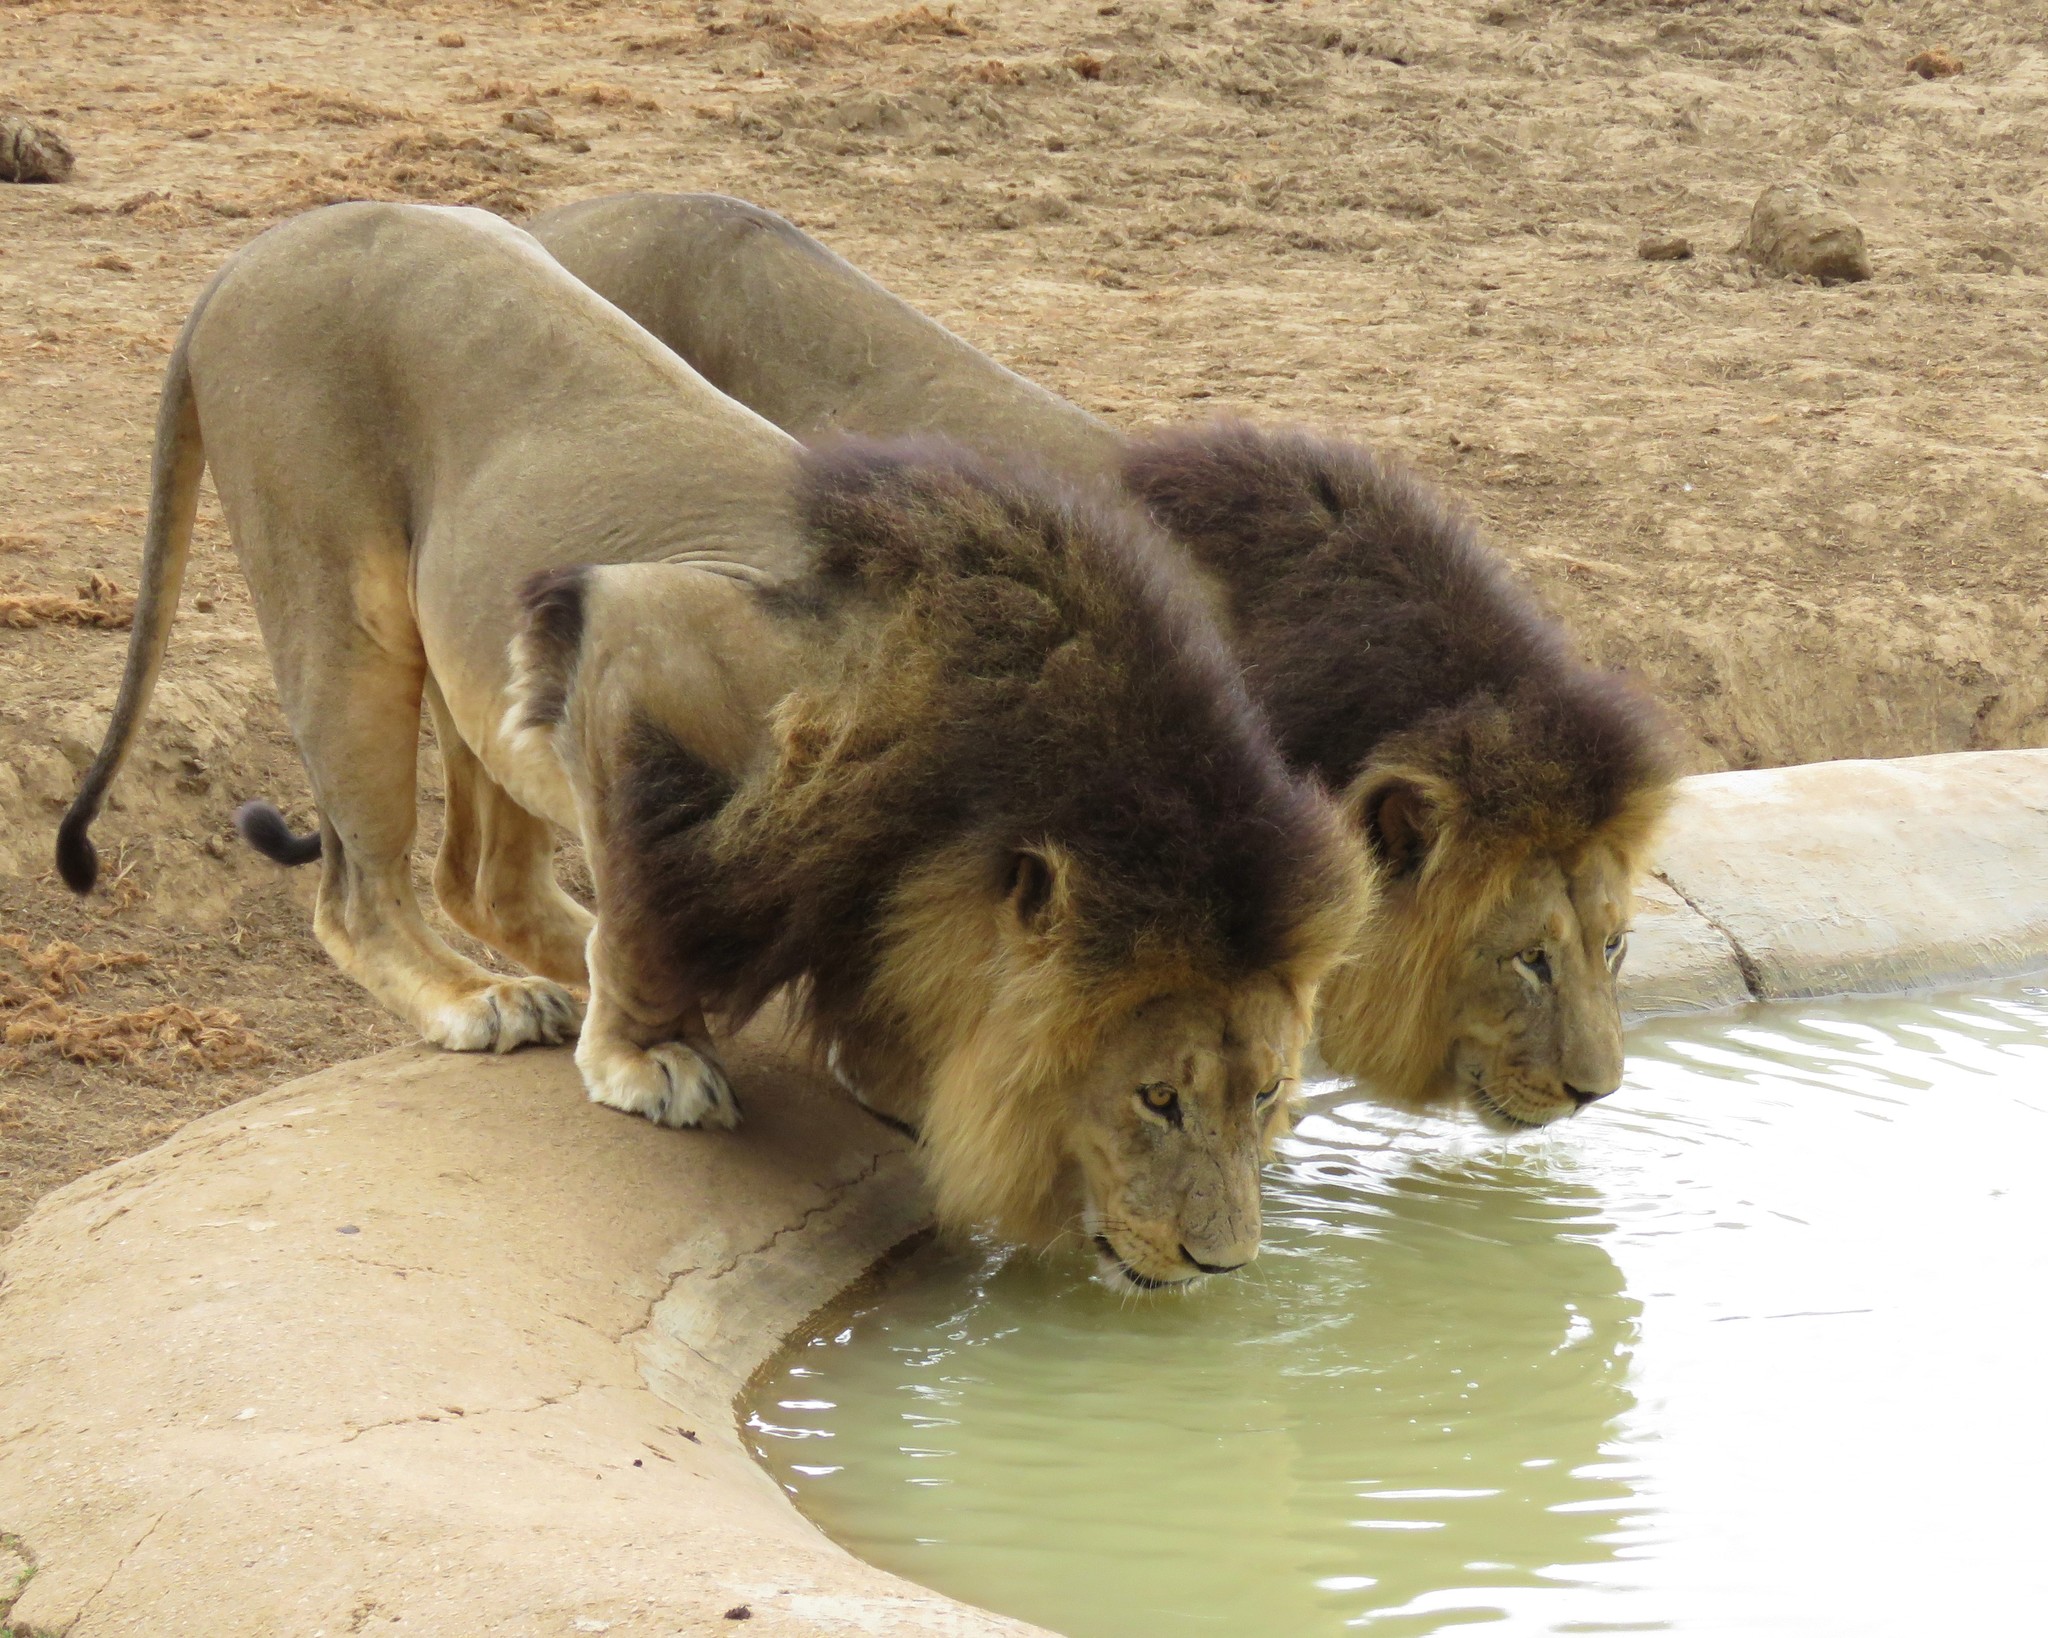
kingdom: Animalia
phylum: Chordata
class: Mammalia
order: Carnivora
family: Felidae
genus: Panthera
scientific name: Panthera leo
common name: Lion
